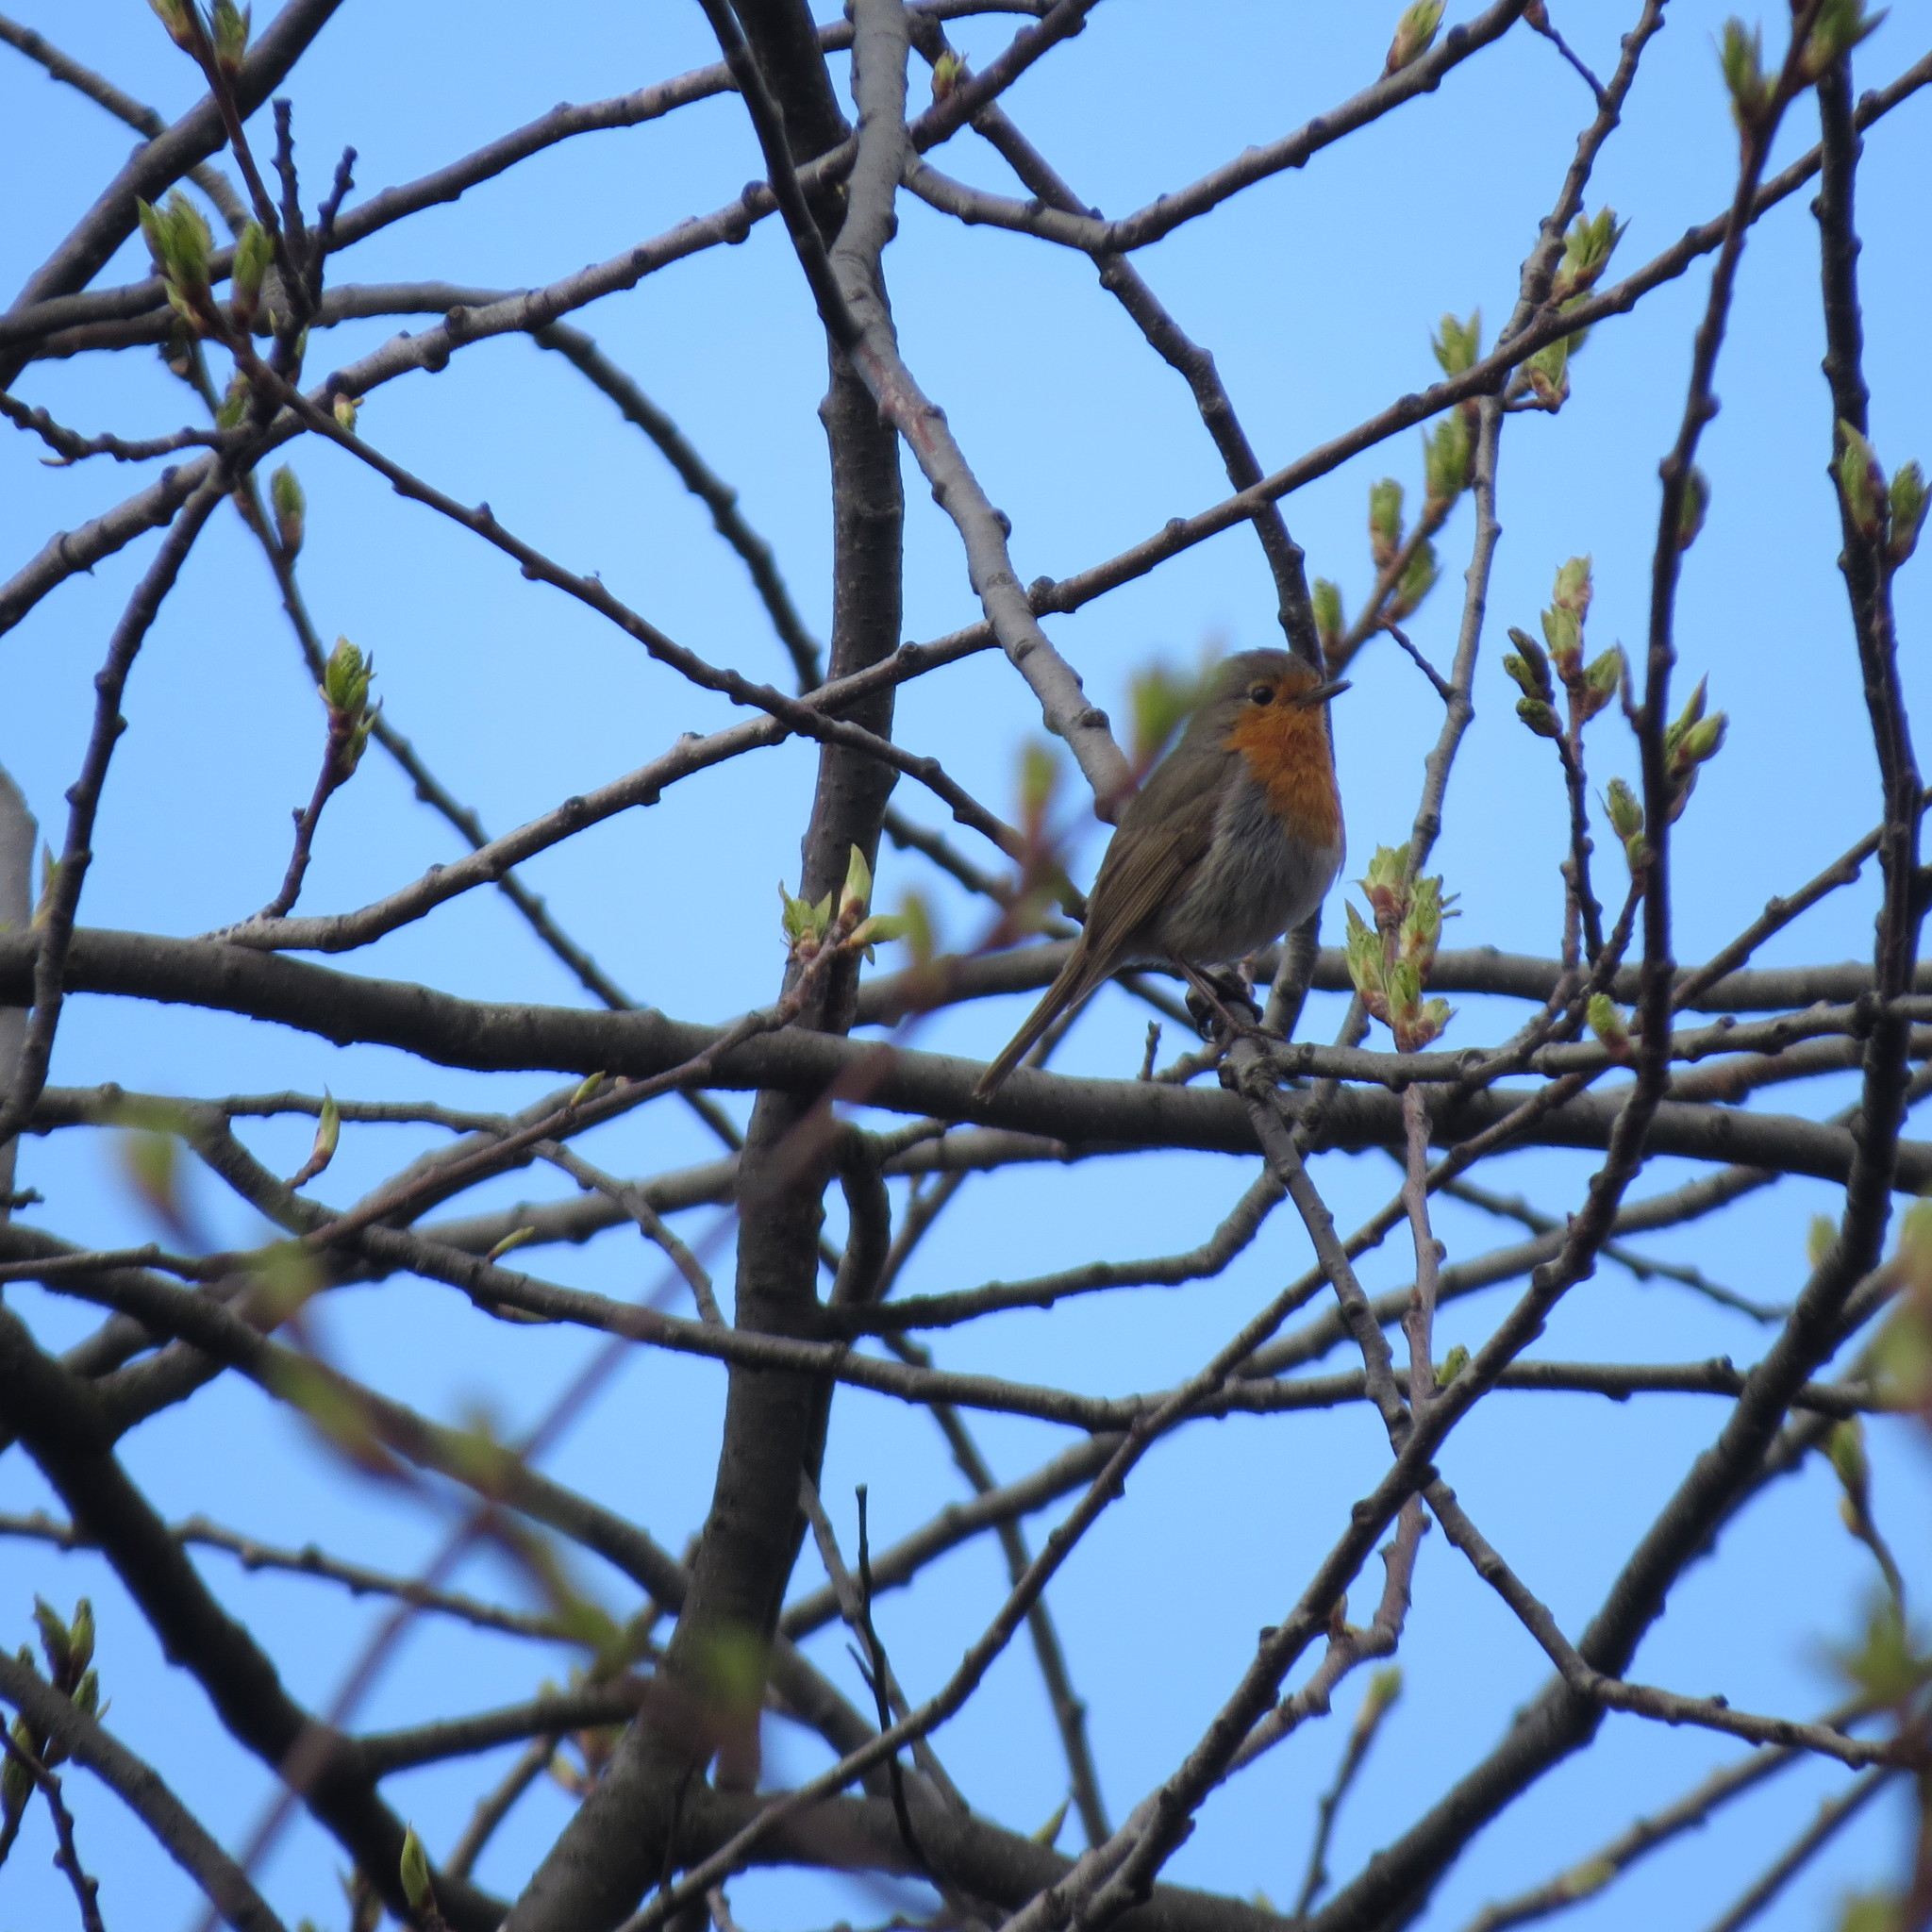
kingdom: Animalia
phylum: Chordata
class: Aves
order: Passeriformes
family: Muscicapidae
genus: Erithacus
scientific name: Erithacus rubecula
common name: European robin
